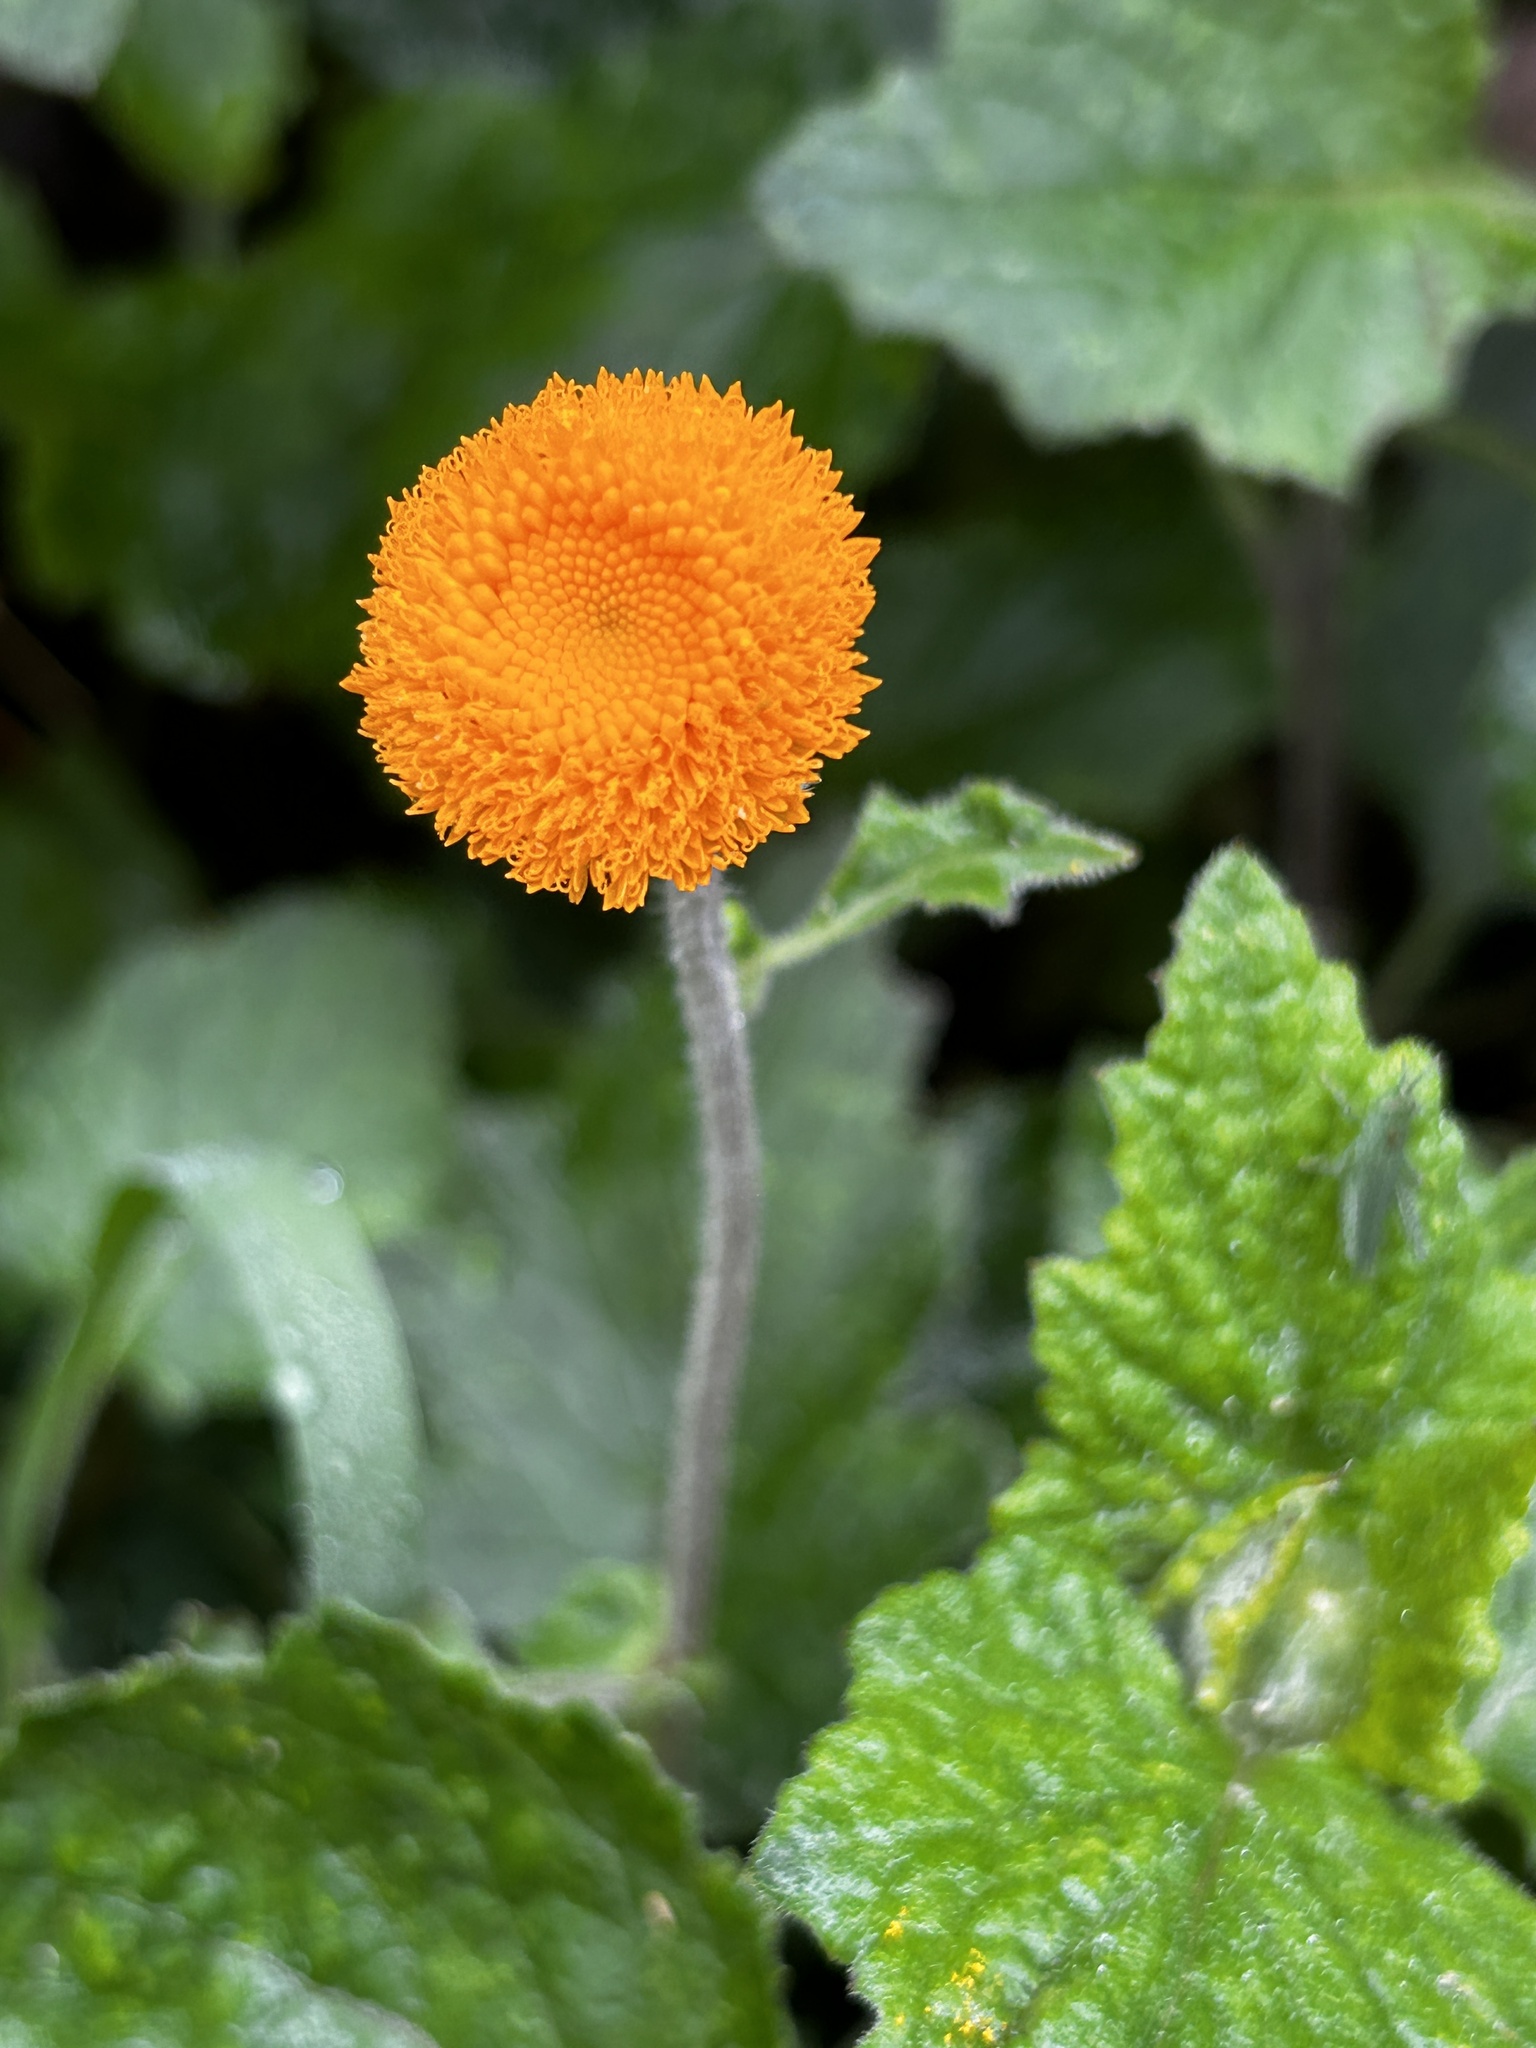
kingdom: Plantae
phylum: Tracheophyta
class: Magnoliopsida
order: Asterales
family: Asteraceae
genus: Crassocephalum
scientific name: Crassocephalum vitellinum
